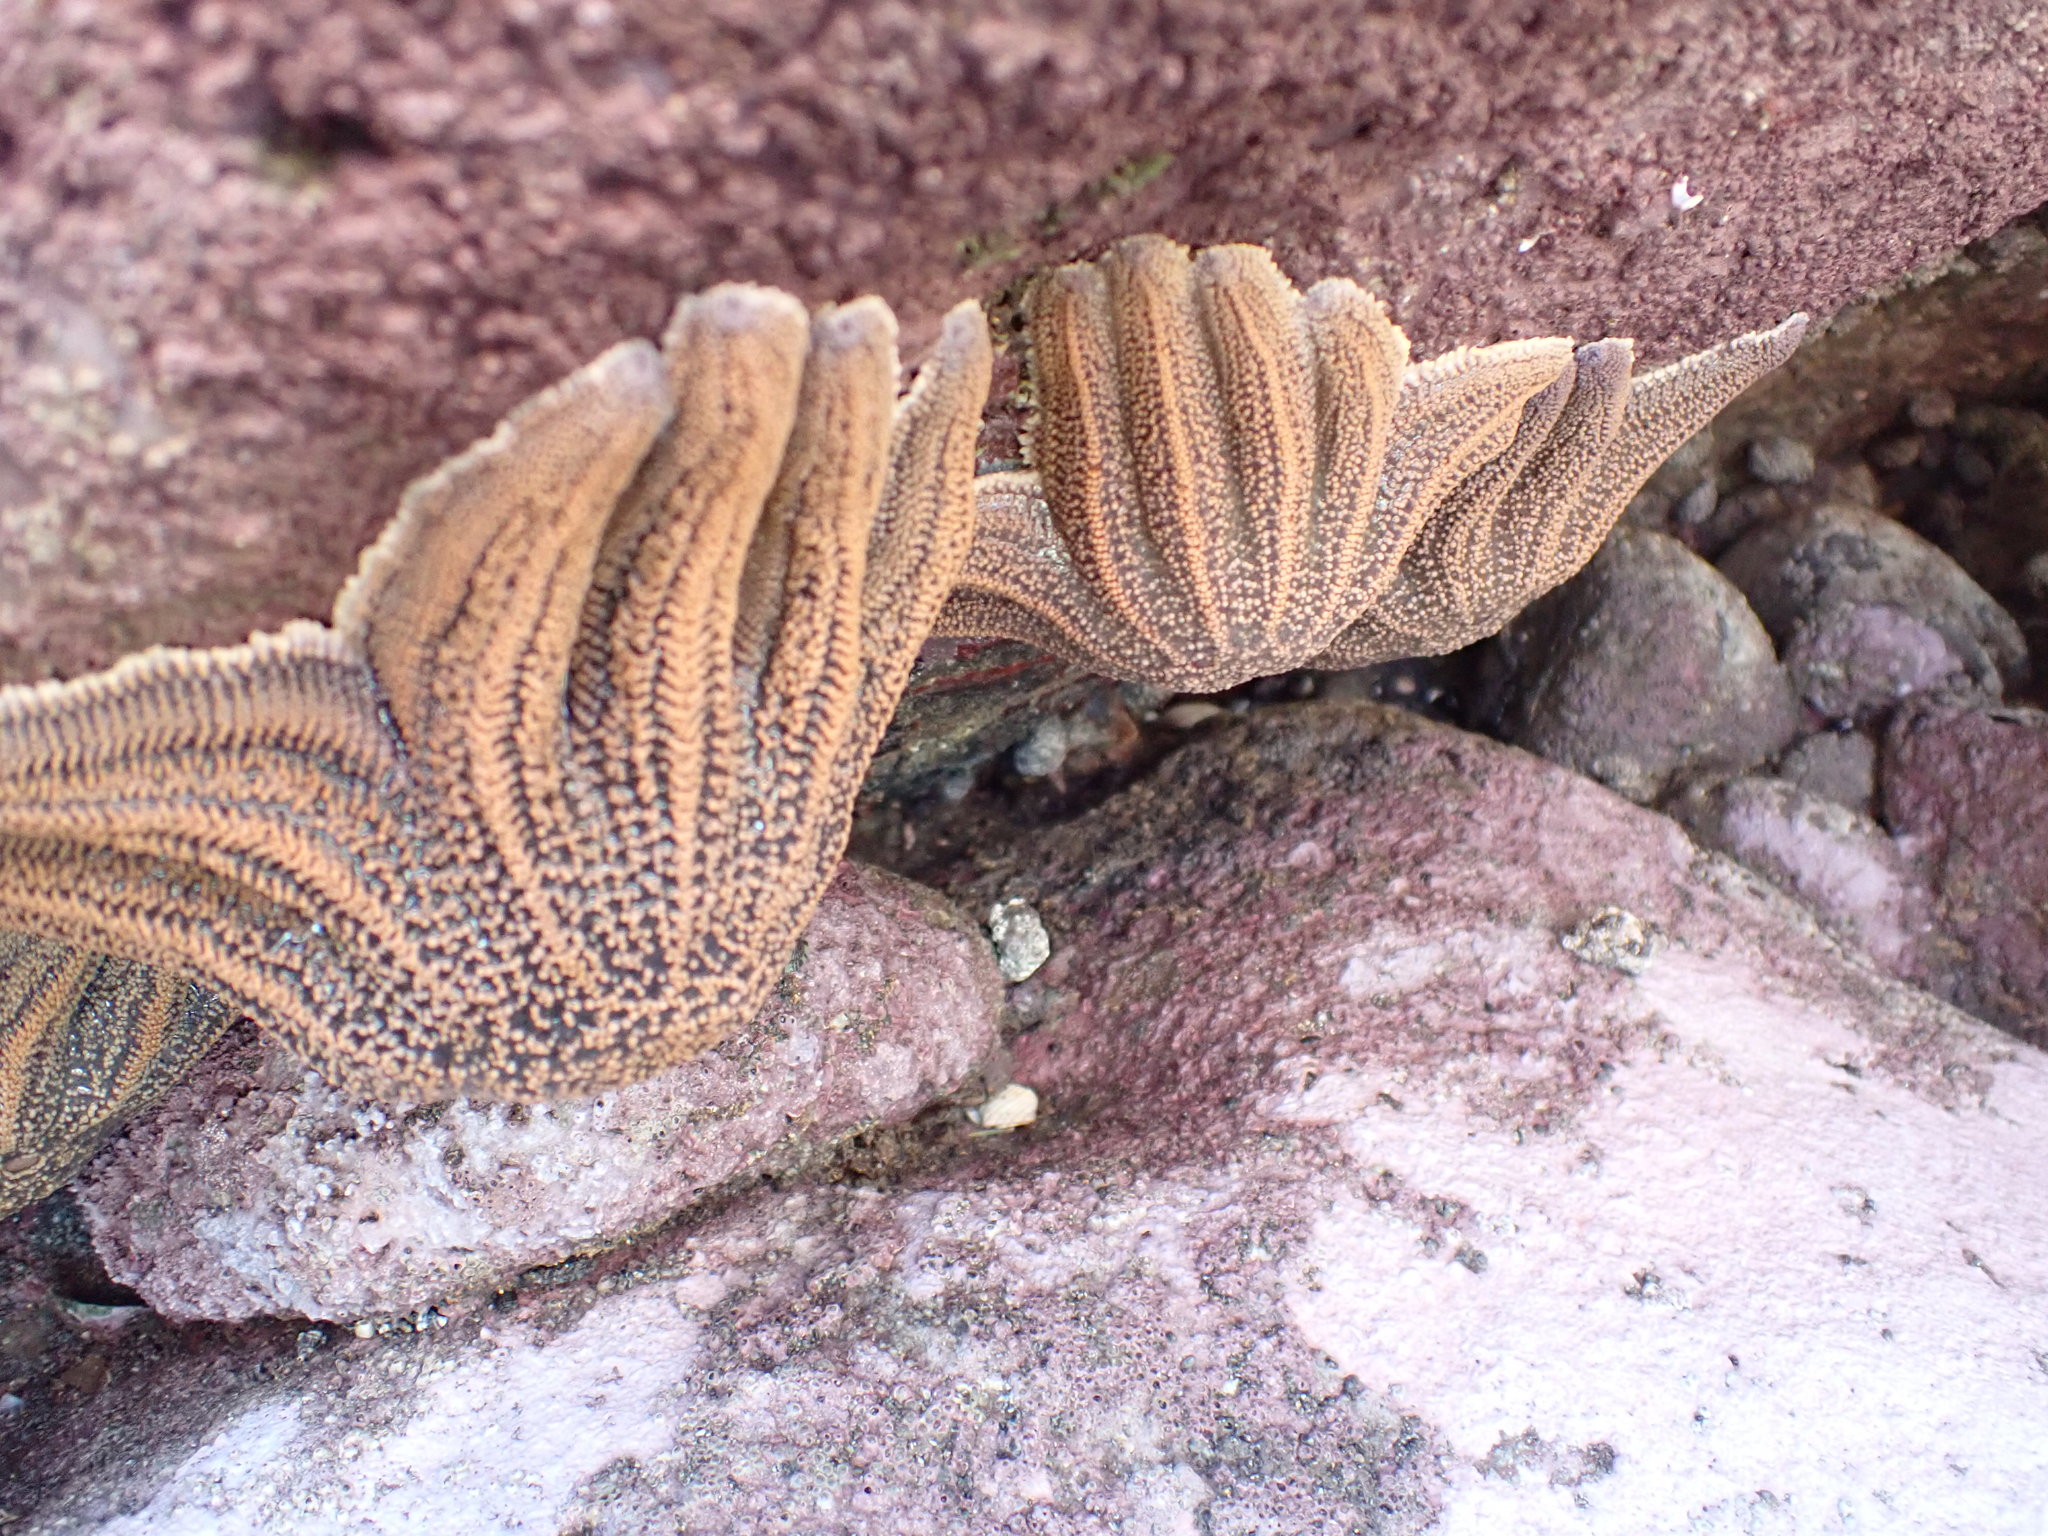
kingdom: Animalia
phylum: Echinodermata
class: Asteroidea
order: Forcipulatida
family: Stichasteridae
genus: Stichaster
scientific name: Stichaster australis
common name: Reef starfish
